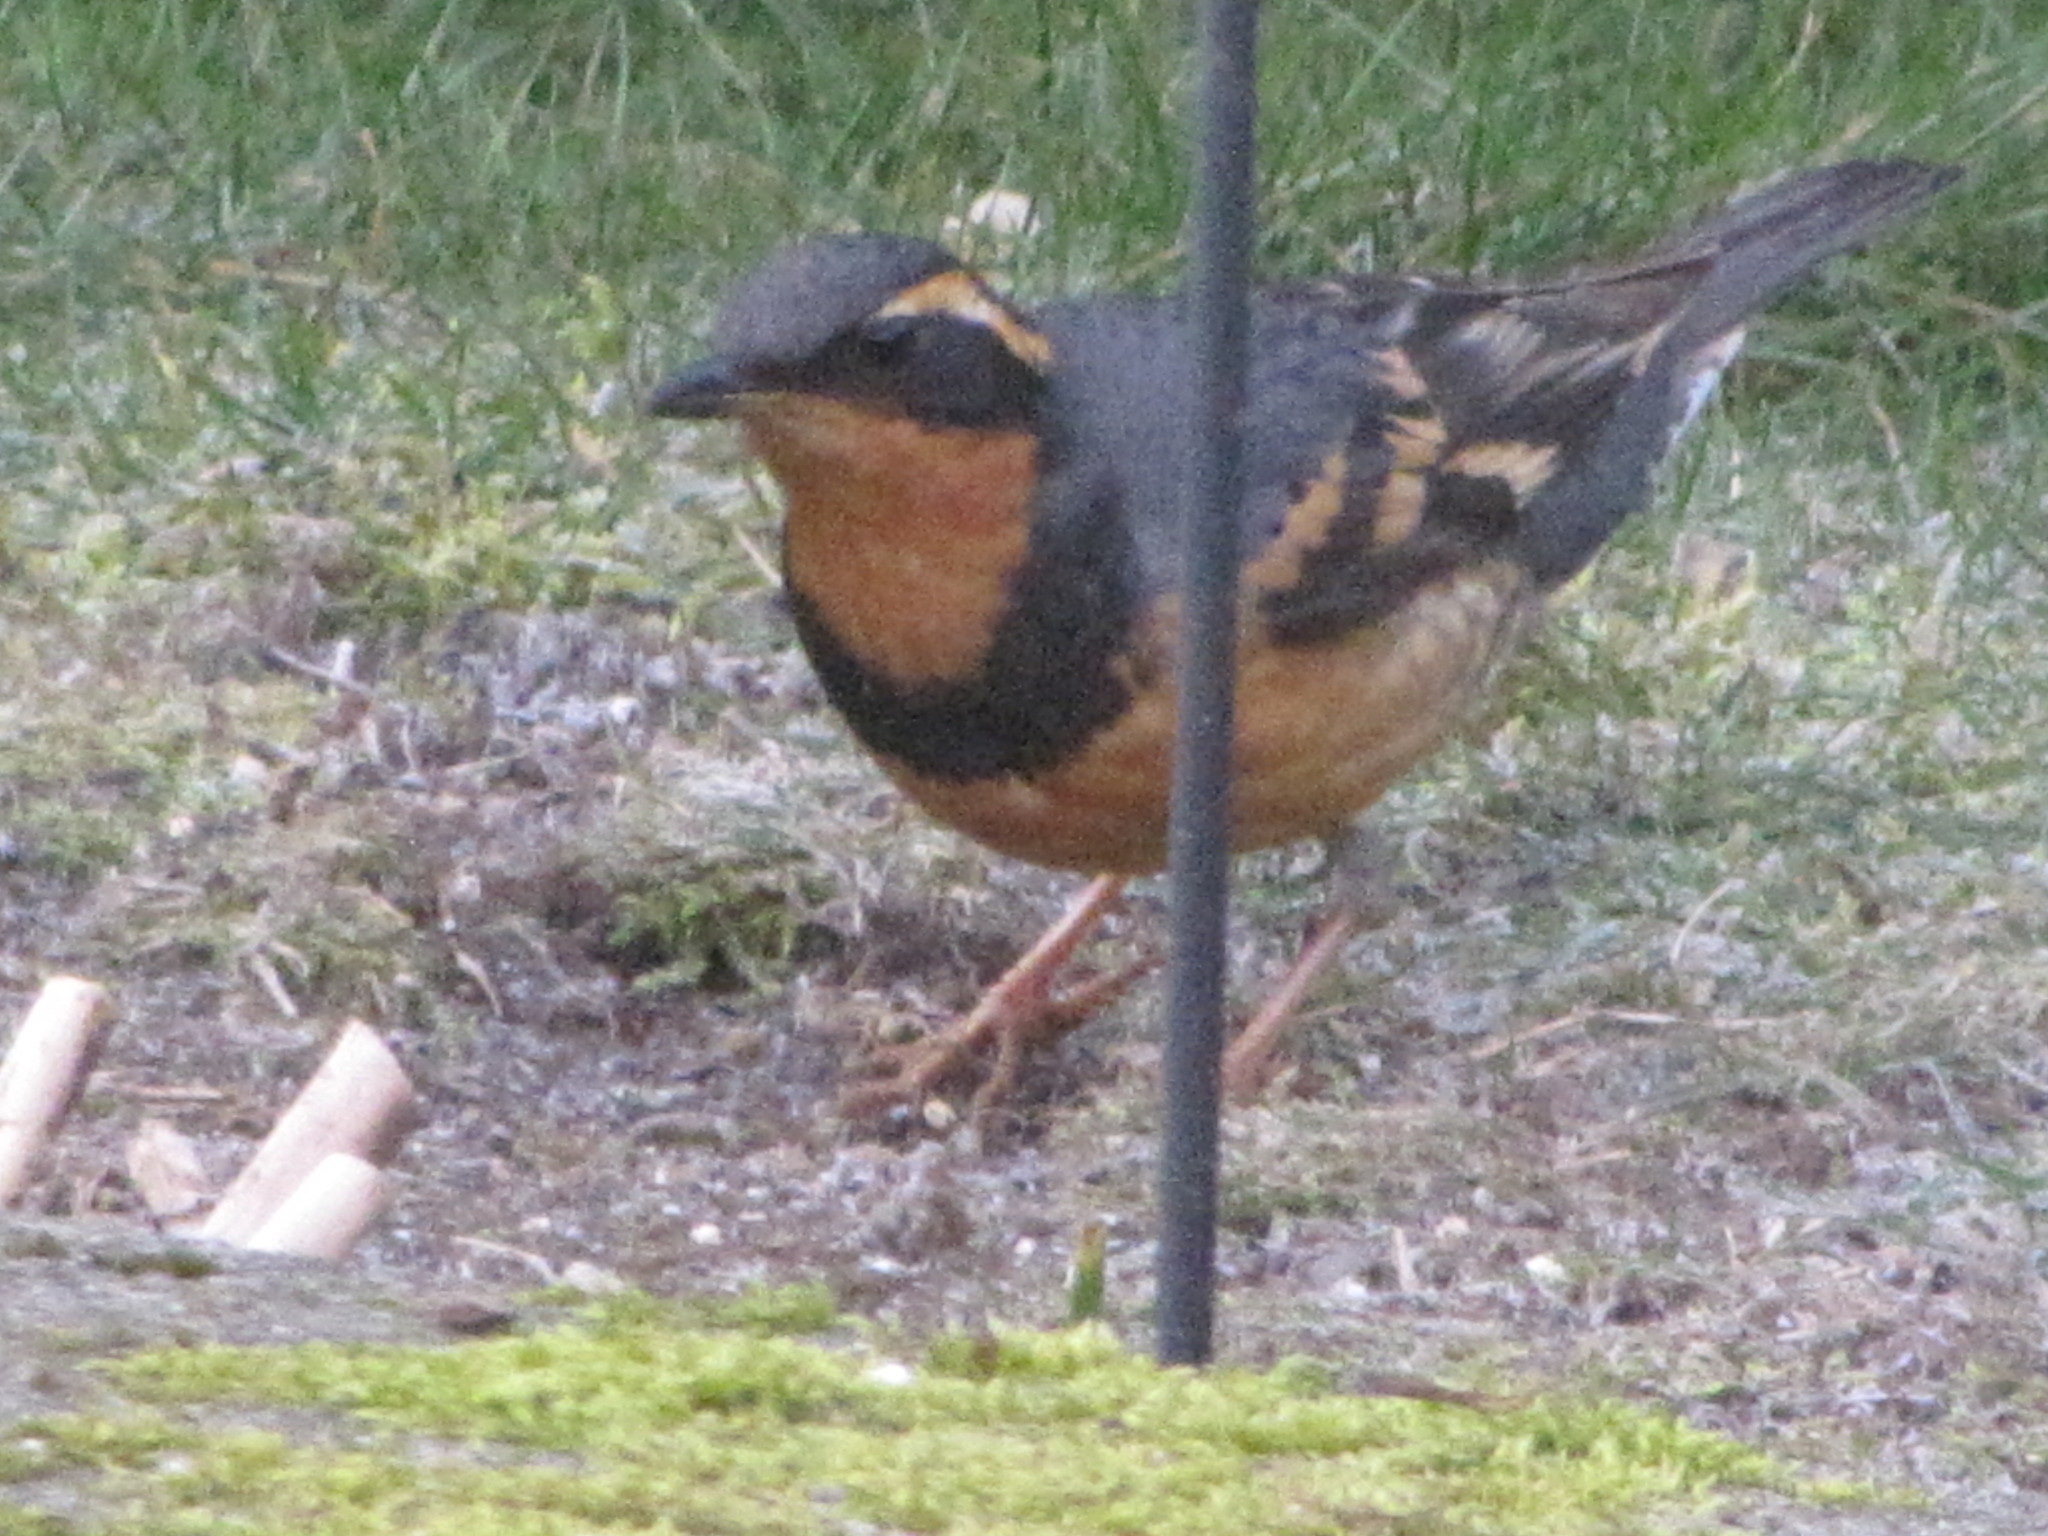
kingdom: Animalia
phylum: Chordata
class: Aves
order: Passeriformes
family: Turdidae
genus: Ixoreus
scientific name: Ixoreus naevius
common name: Varied thrush
